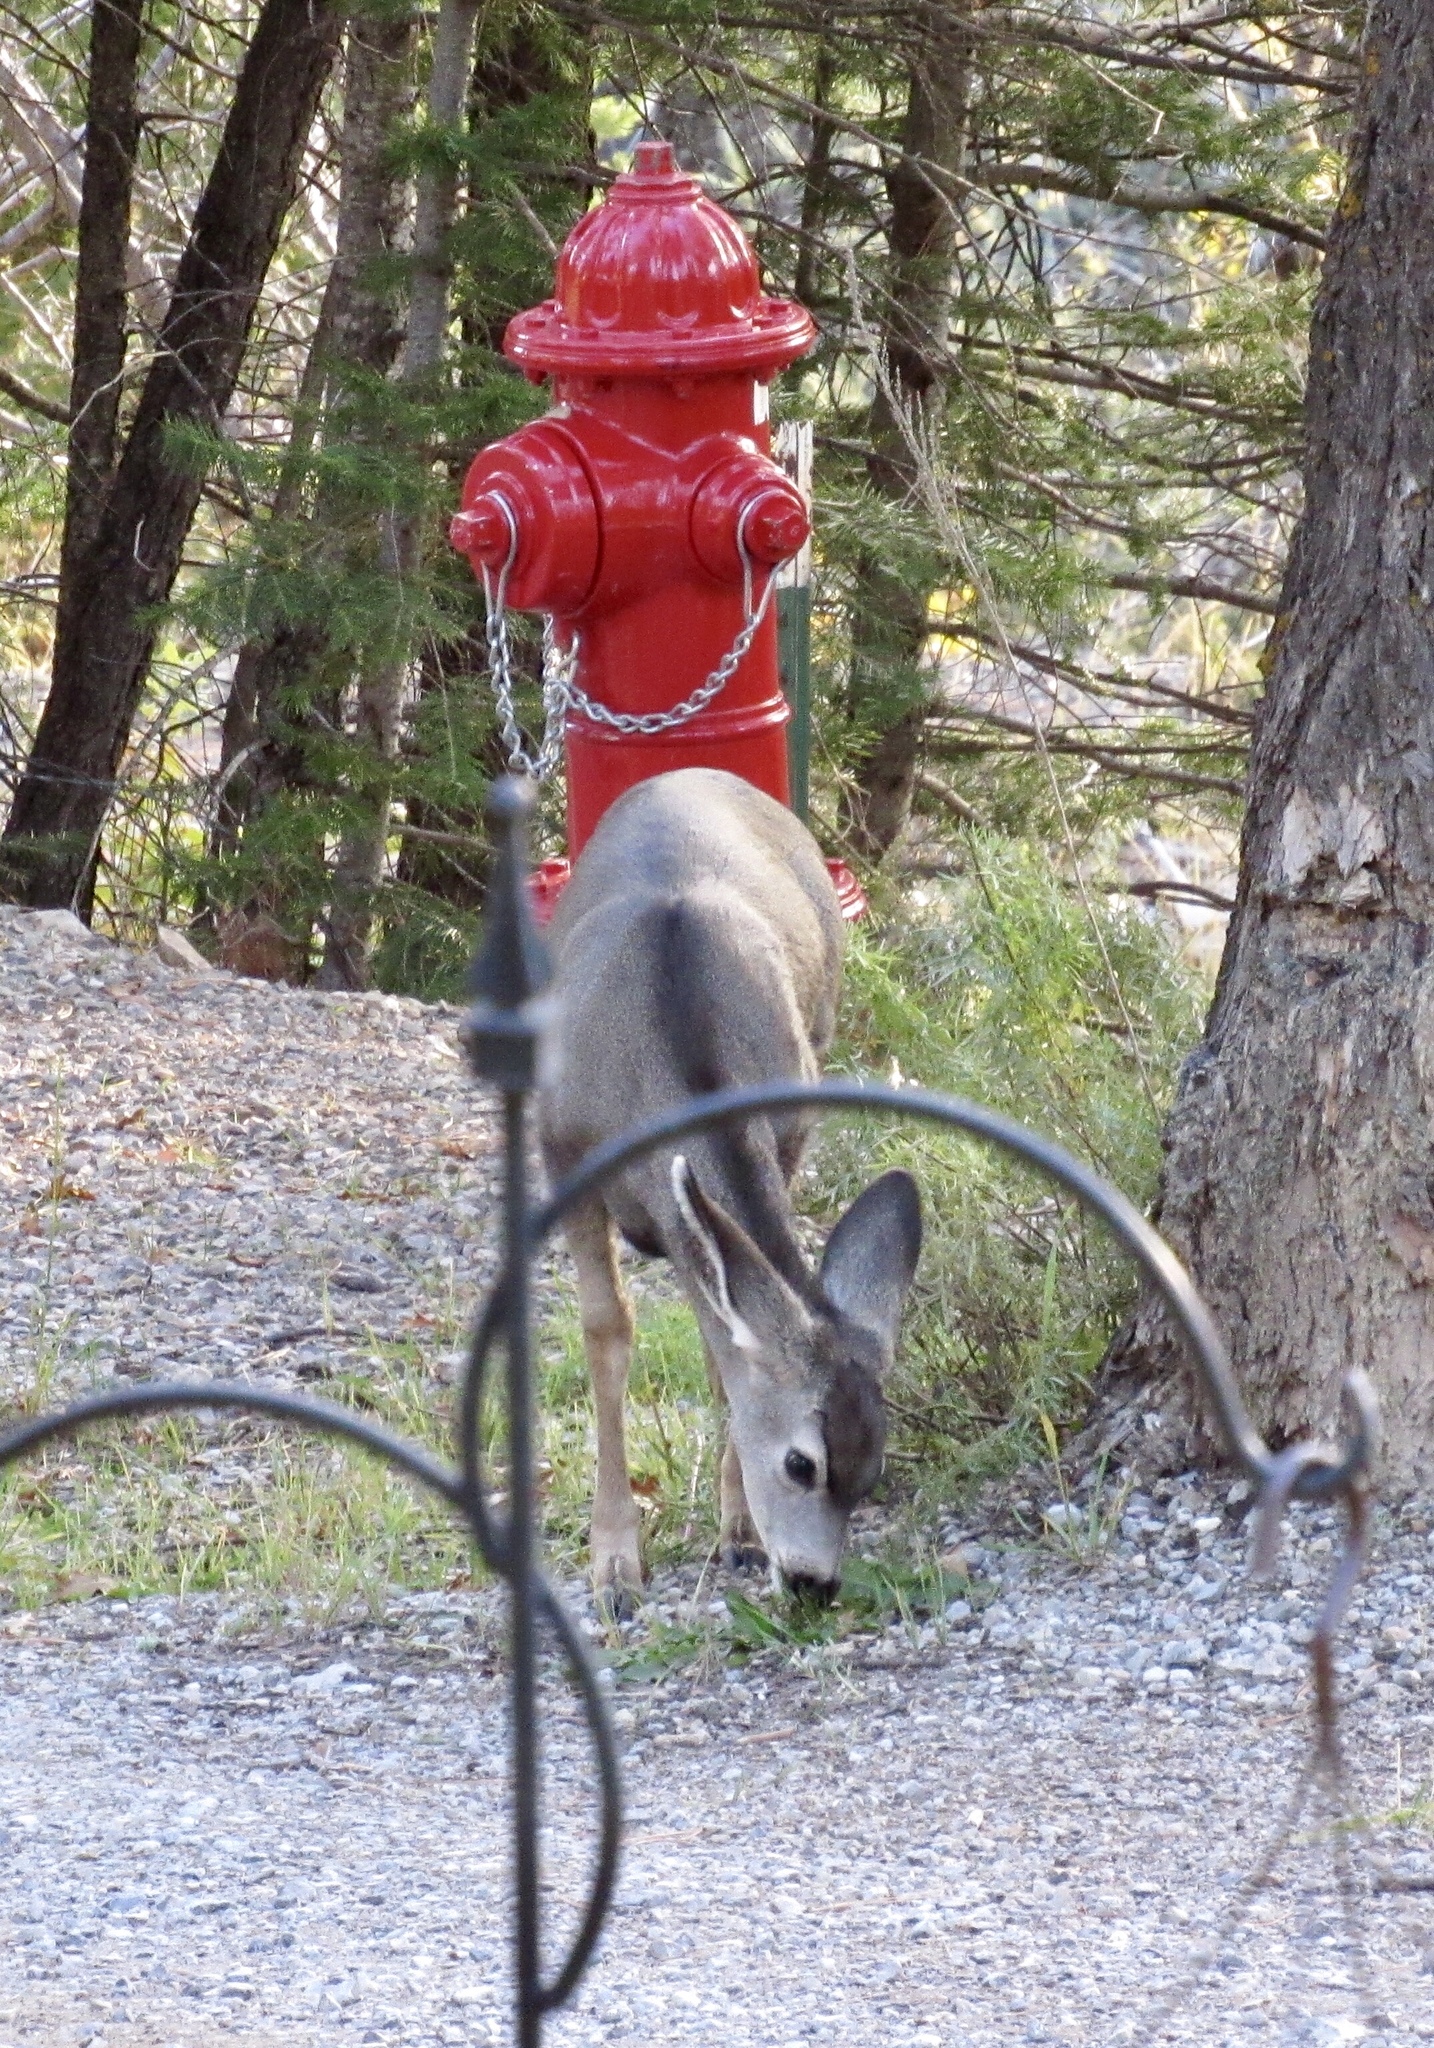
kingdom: Animalia
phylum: Chordata
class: Mammalia
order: Artiodactyla
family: Cervidae
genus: Odocoileus
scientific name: Odocoileus hemionus
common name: Mule deer
